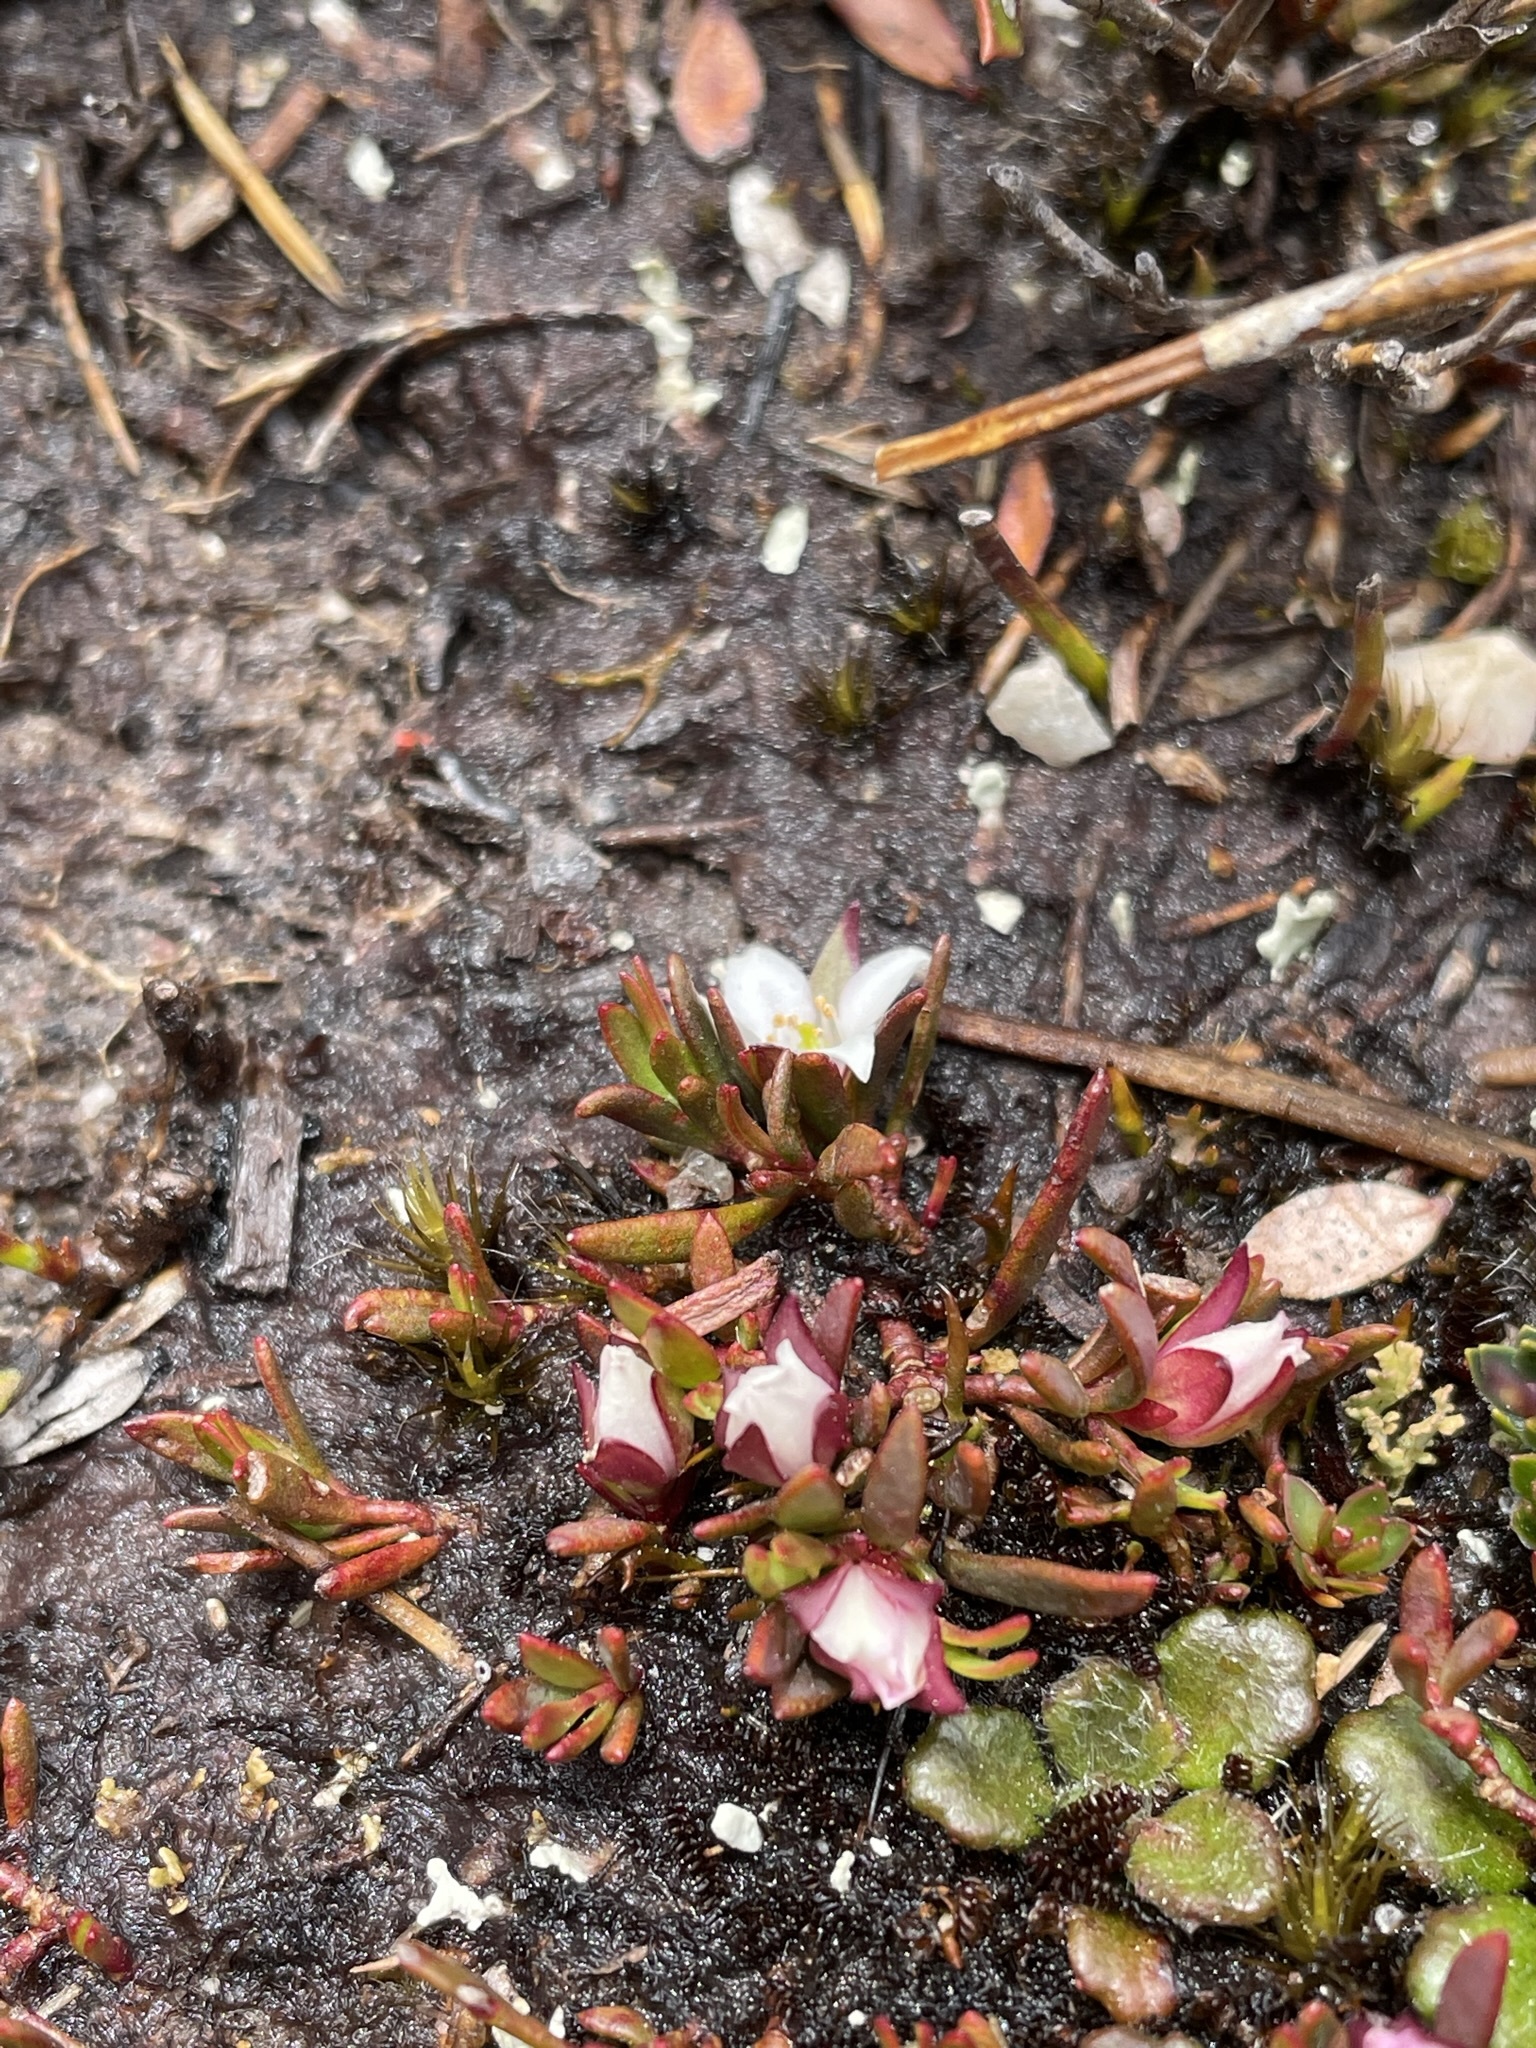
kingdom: Plantae
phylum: Tracheophyta
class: Magnoliopsida
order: Sapindales
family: Rutaceae
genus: Boronia
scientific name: Boronia parviflora
